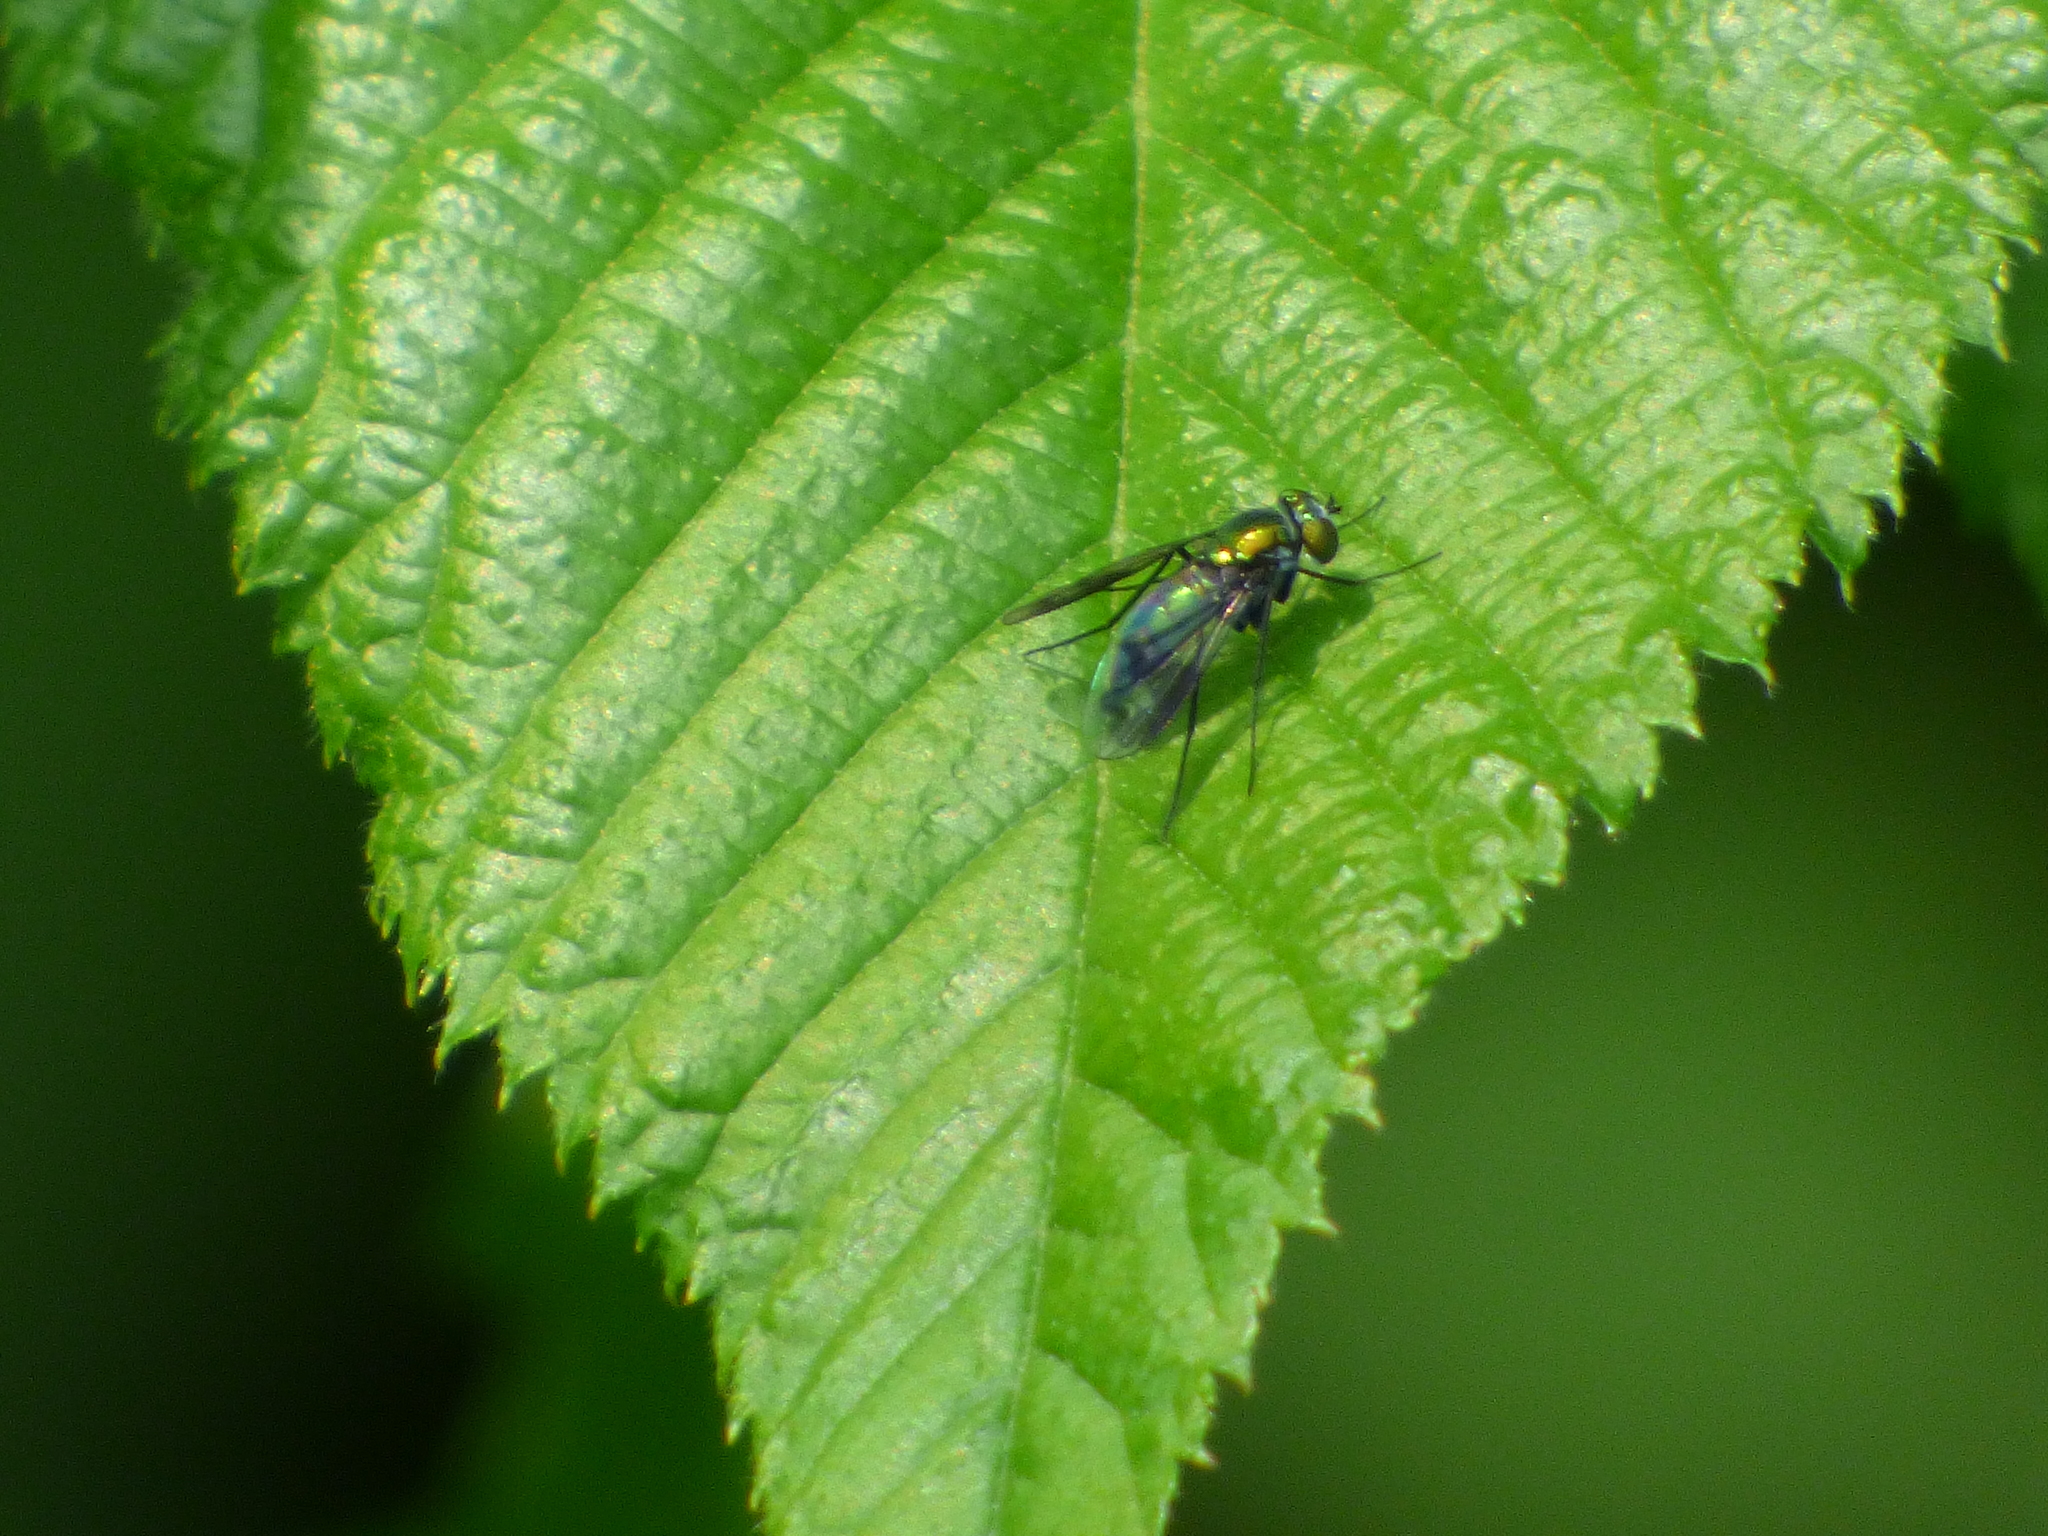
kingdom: Animalia
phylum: Arthropoda
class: Insecta
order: Diptera
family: Dolichopodidae
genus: Condylostylus
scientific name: Condylostylus patibulatus
